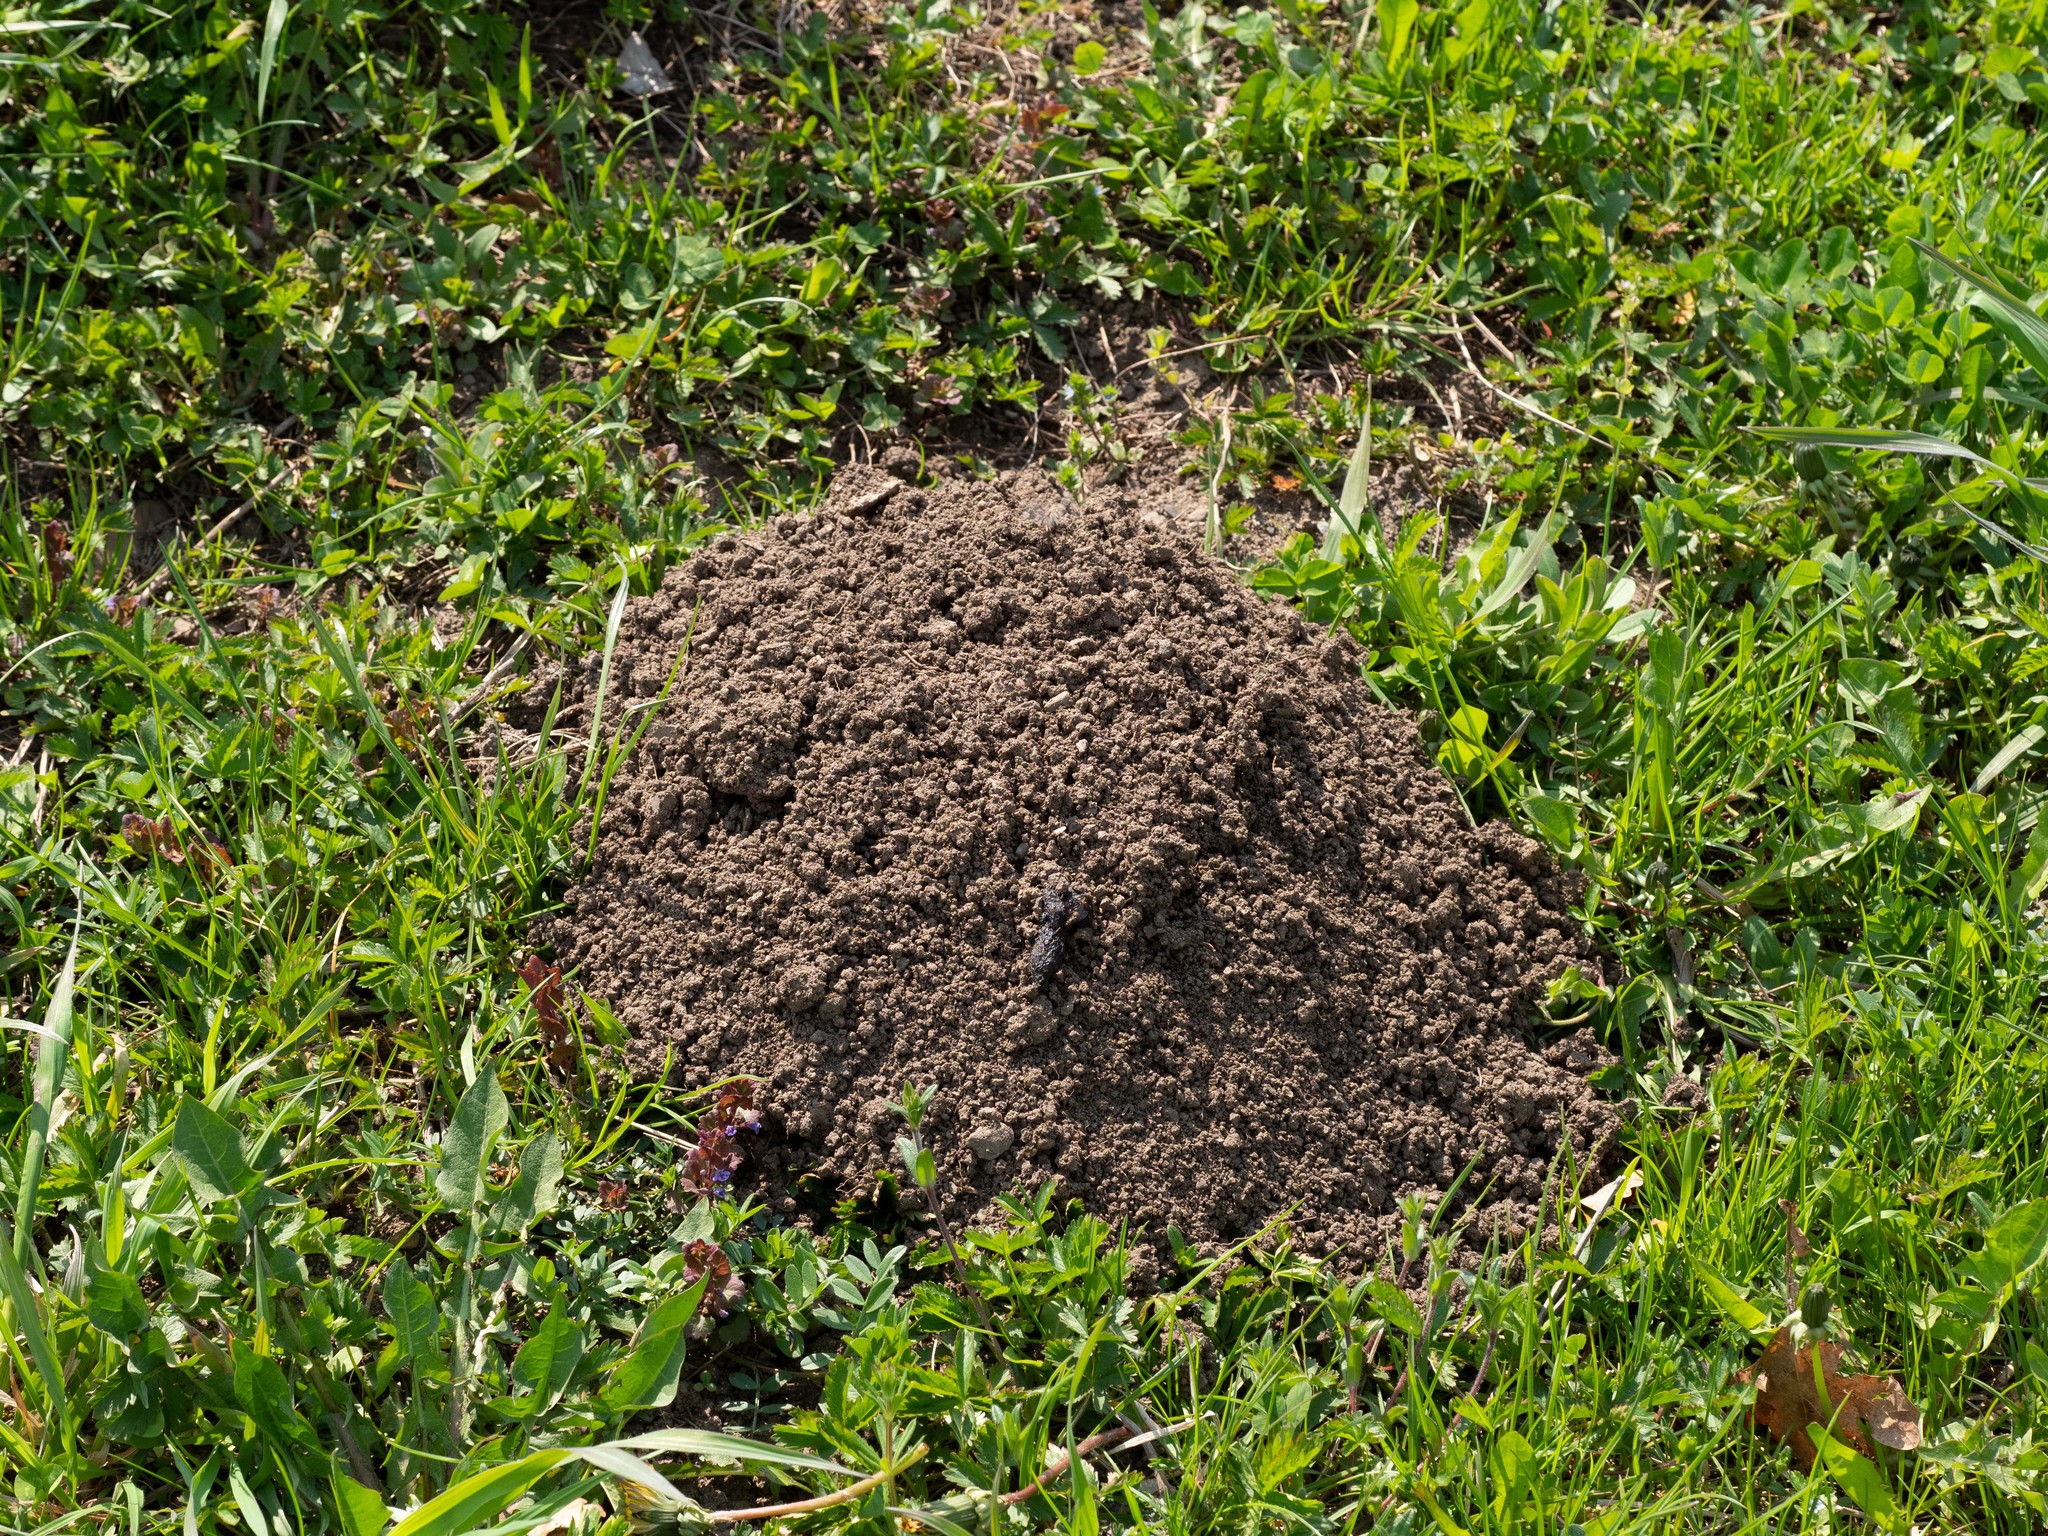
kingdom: Animalia
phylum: Chordata
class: Mammalia
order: Soricomorpha
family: Talpidae
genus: Talpa
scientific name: Talpa europaea
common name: European mole
